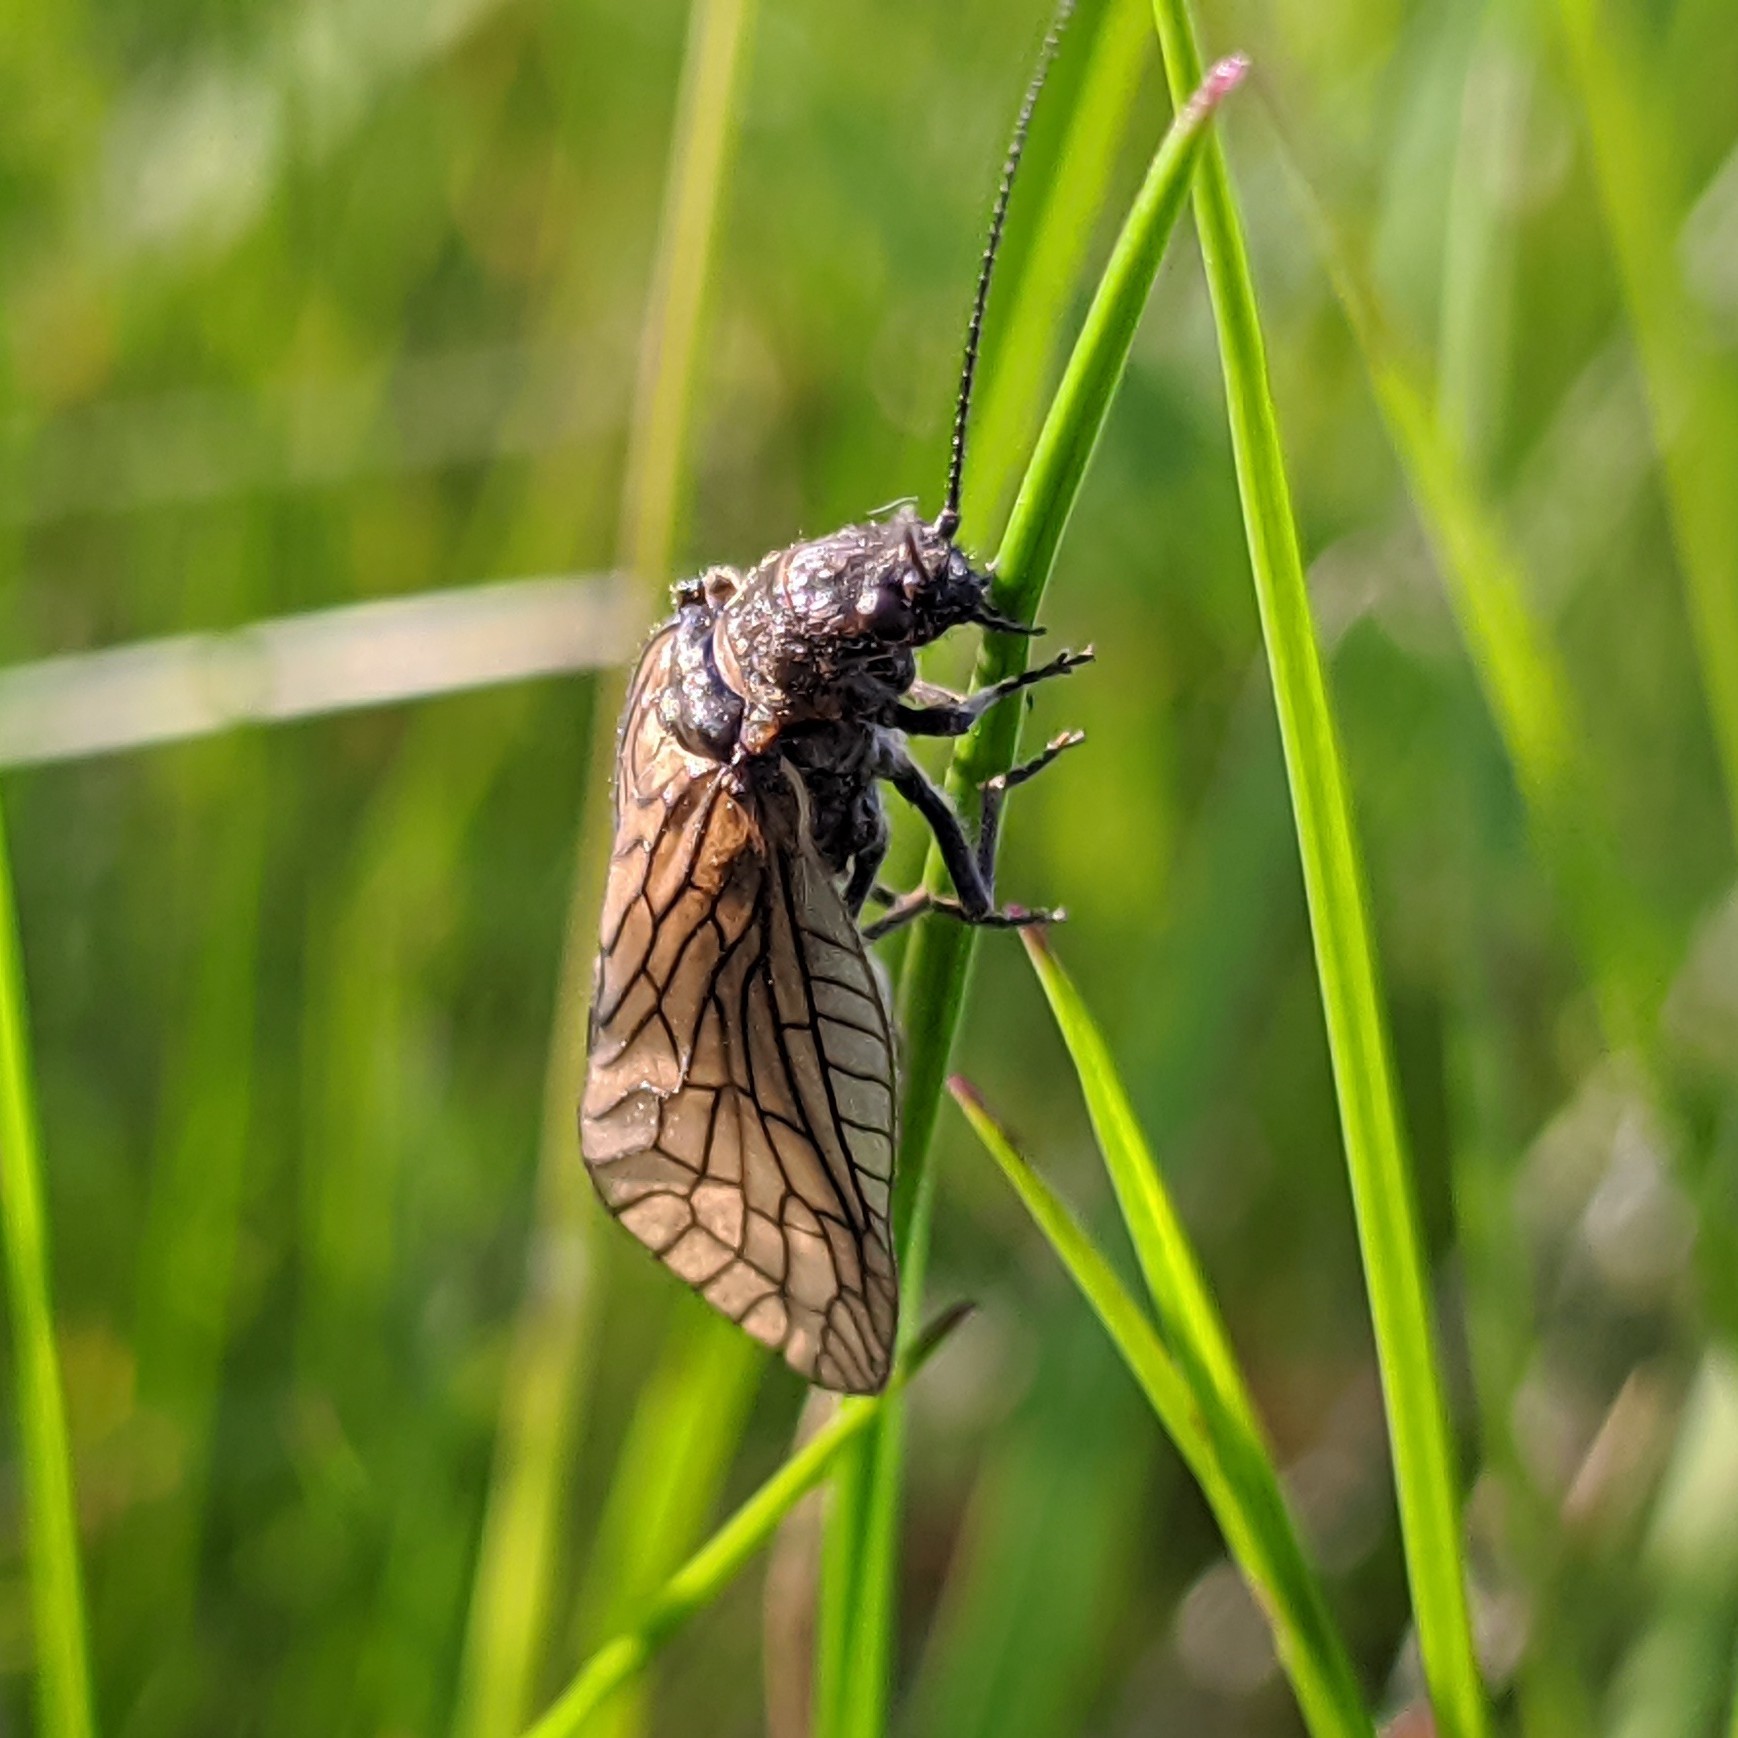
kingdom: Animalia
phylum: Arthropoda
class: Insecta
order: Megaloptera
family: Sialidae
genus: Sialis
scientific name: Sialis
